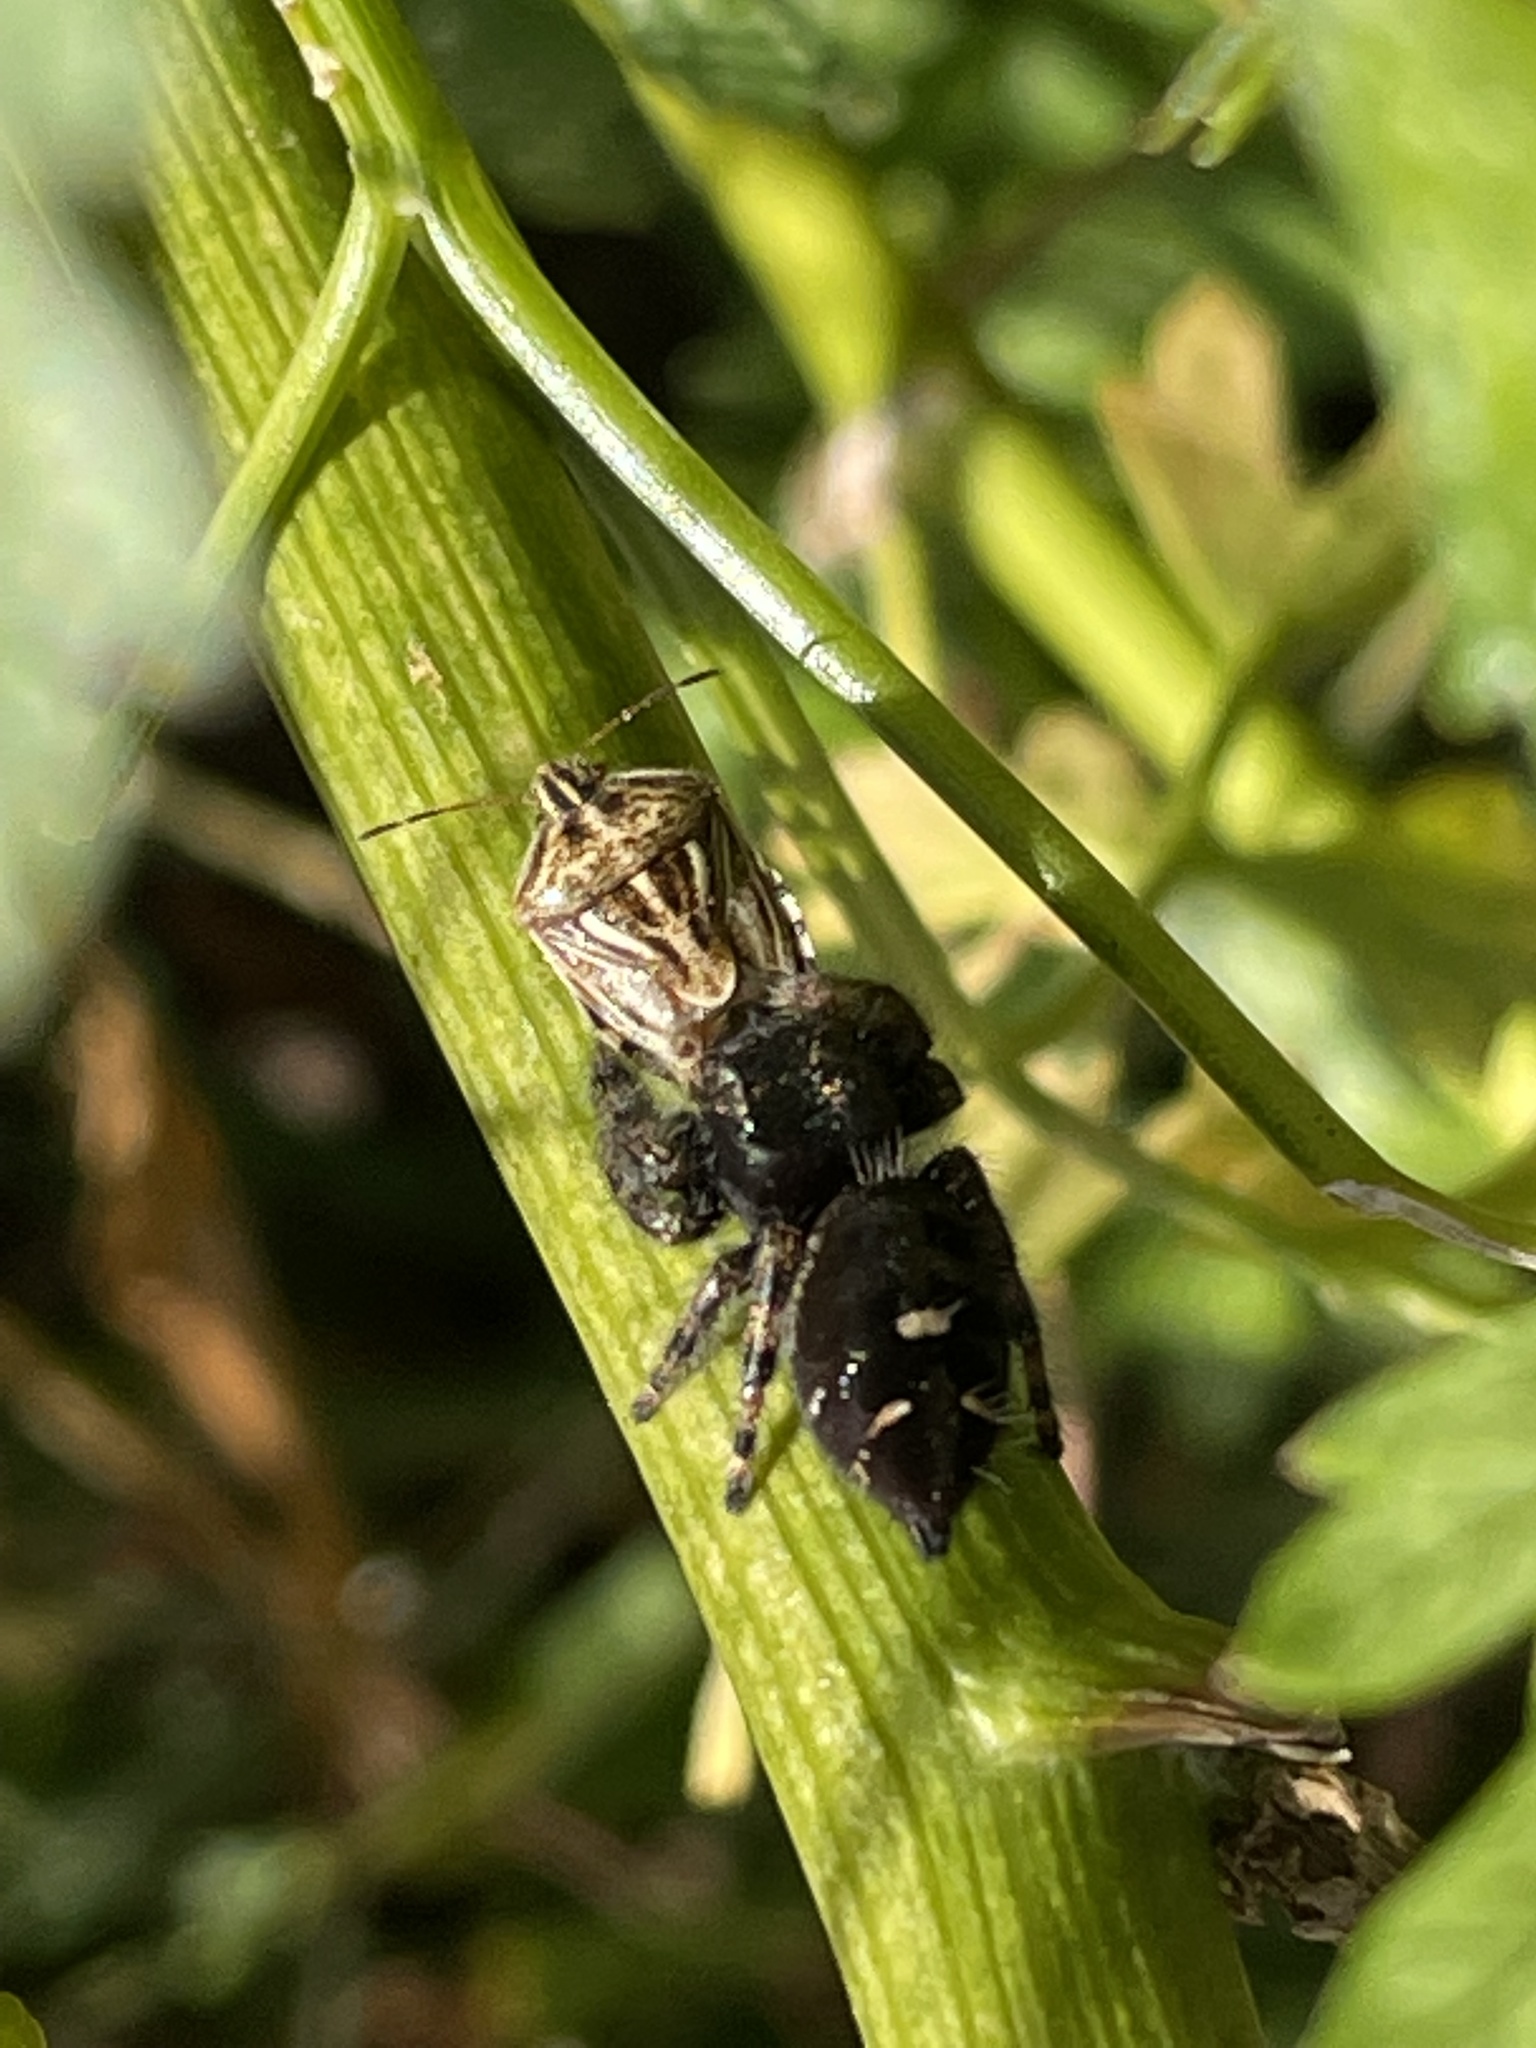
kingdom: Animalia
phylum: Arthropoda
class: Arachnida
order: Araneae
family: Salticidae
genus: Phidippus
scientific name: Phidippus audax
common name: Bold jumper
